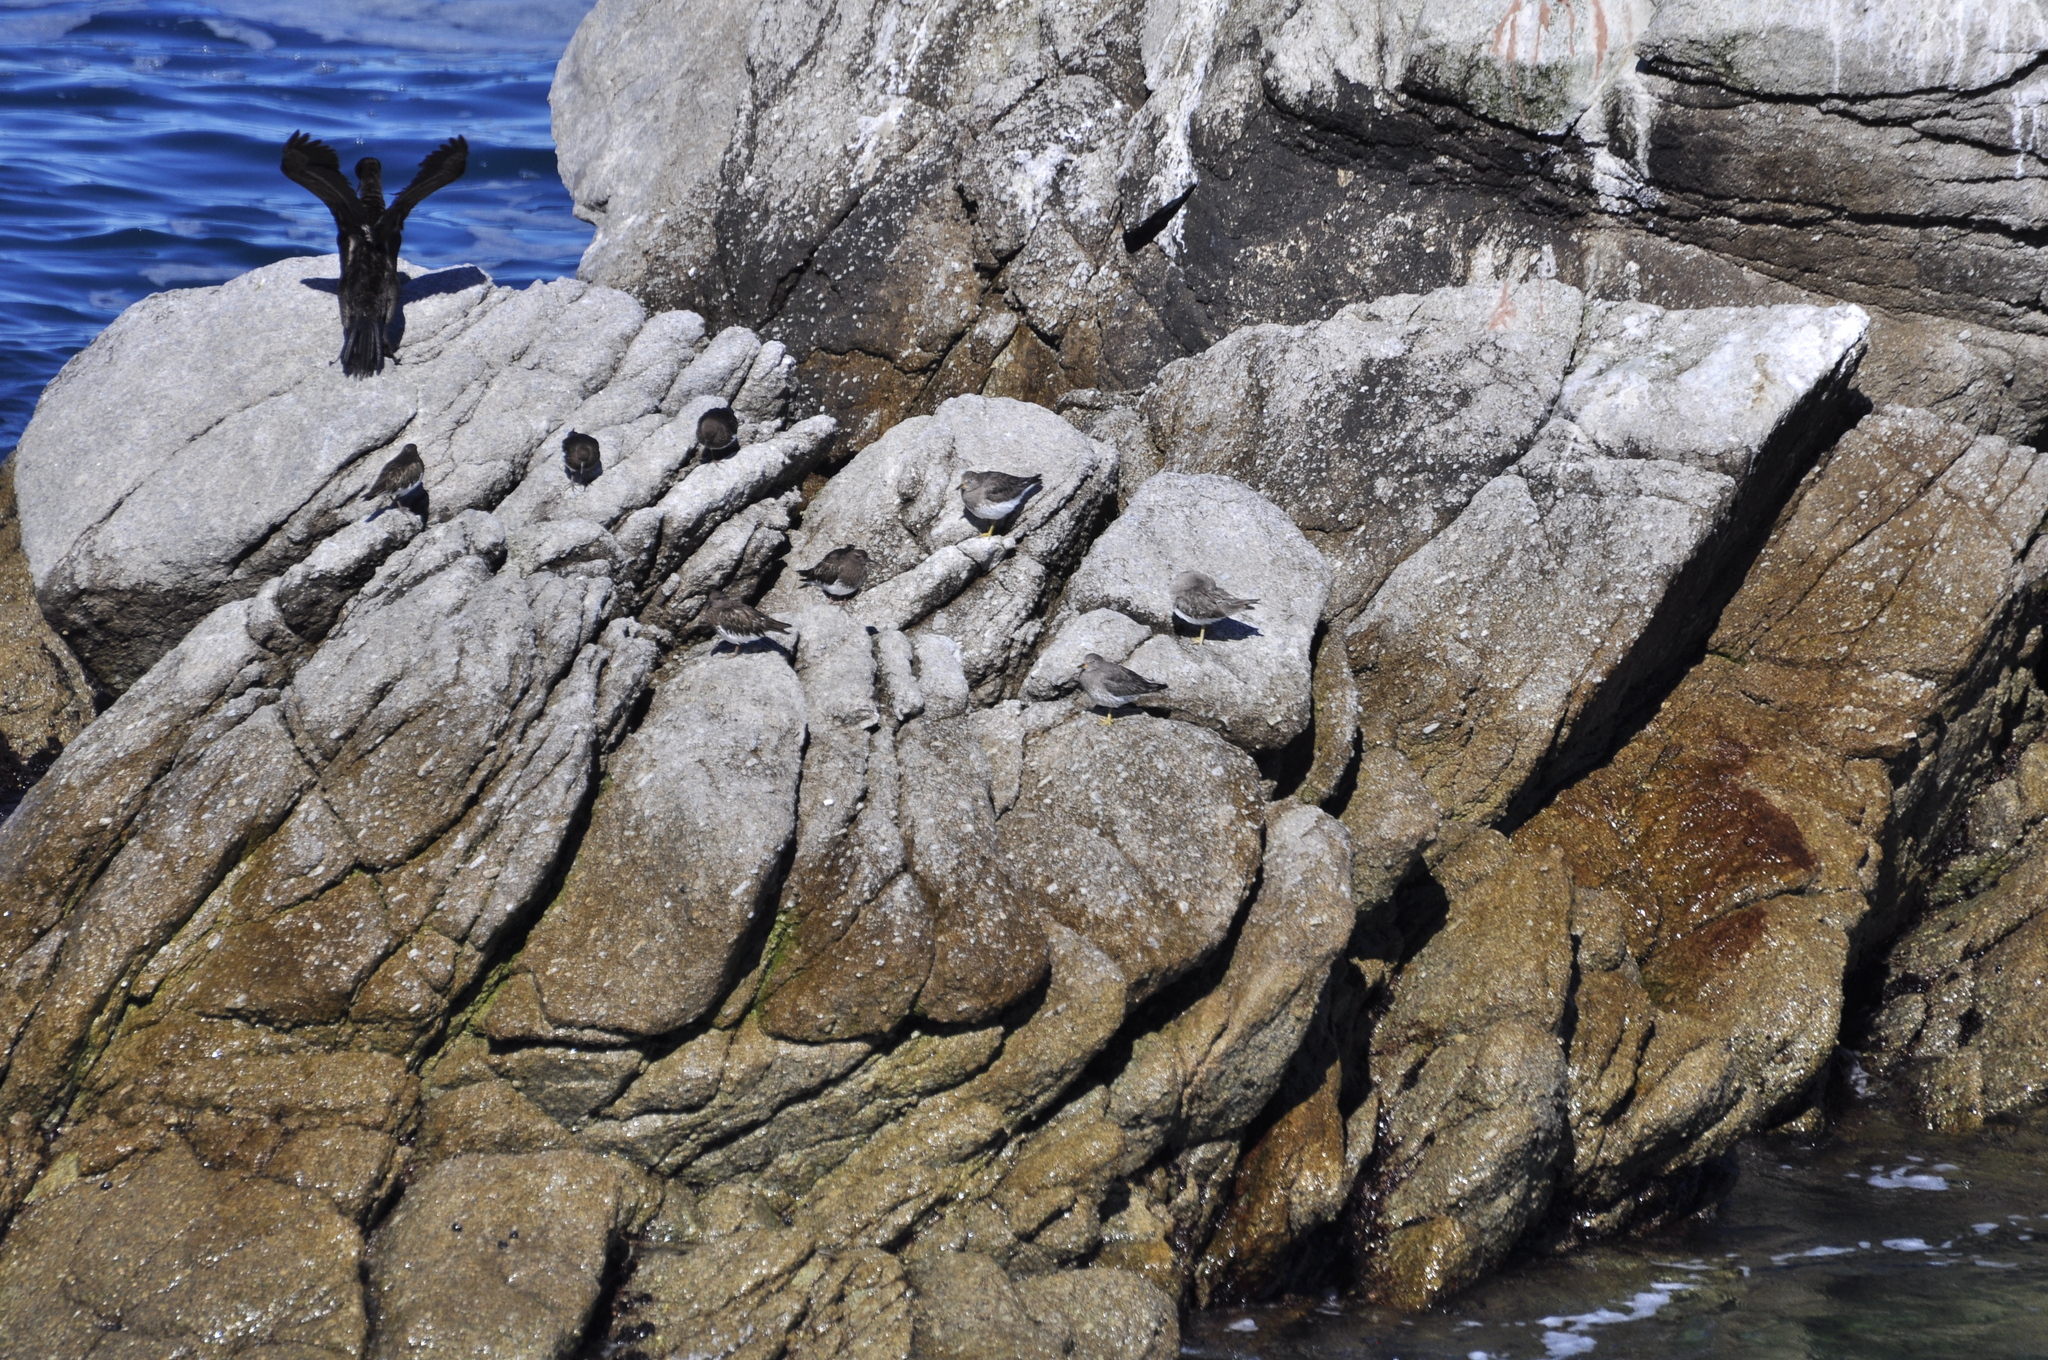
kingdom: Animalia
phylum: Chordata
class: Aves
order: Charadriiformes
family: Scolopacidae
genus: Calidris
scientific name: Calidris virgata
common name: Surfbird
